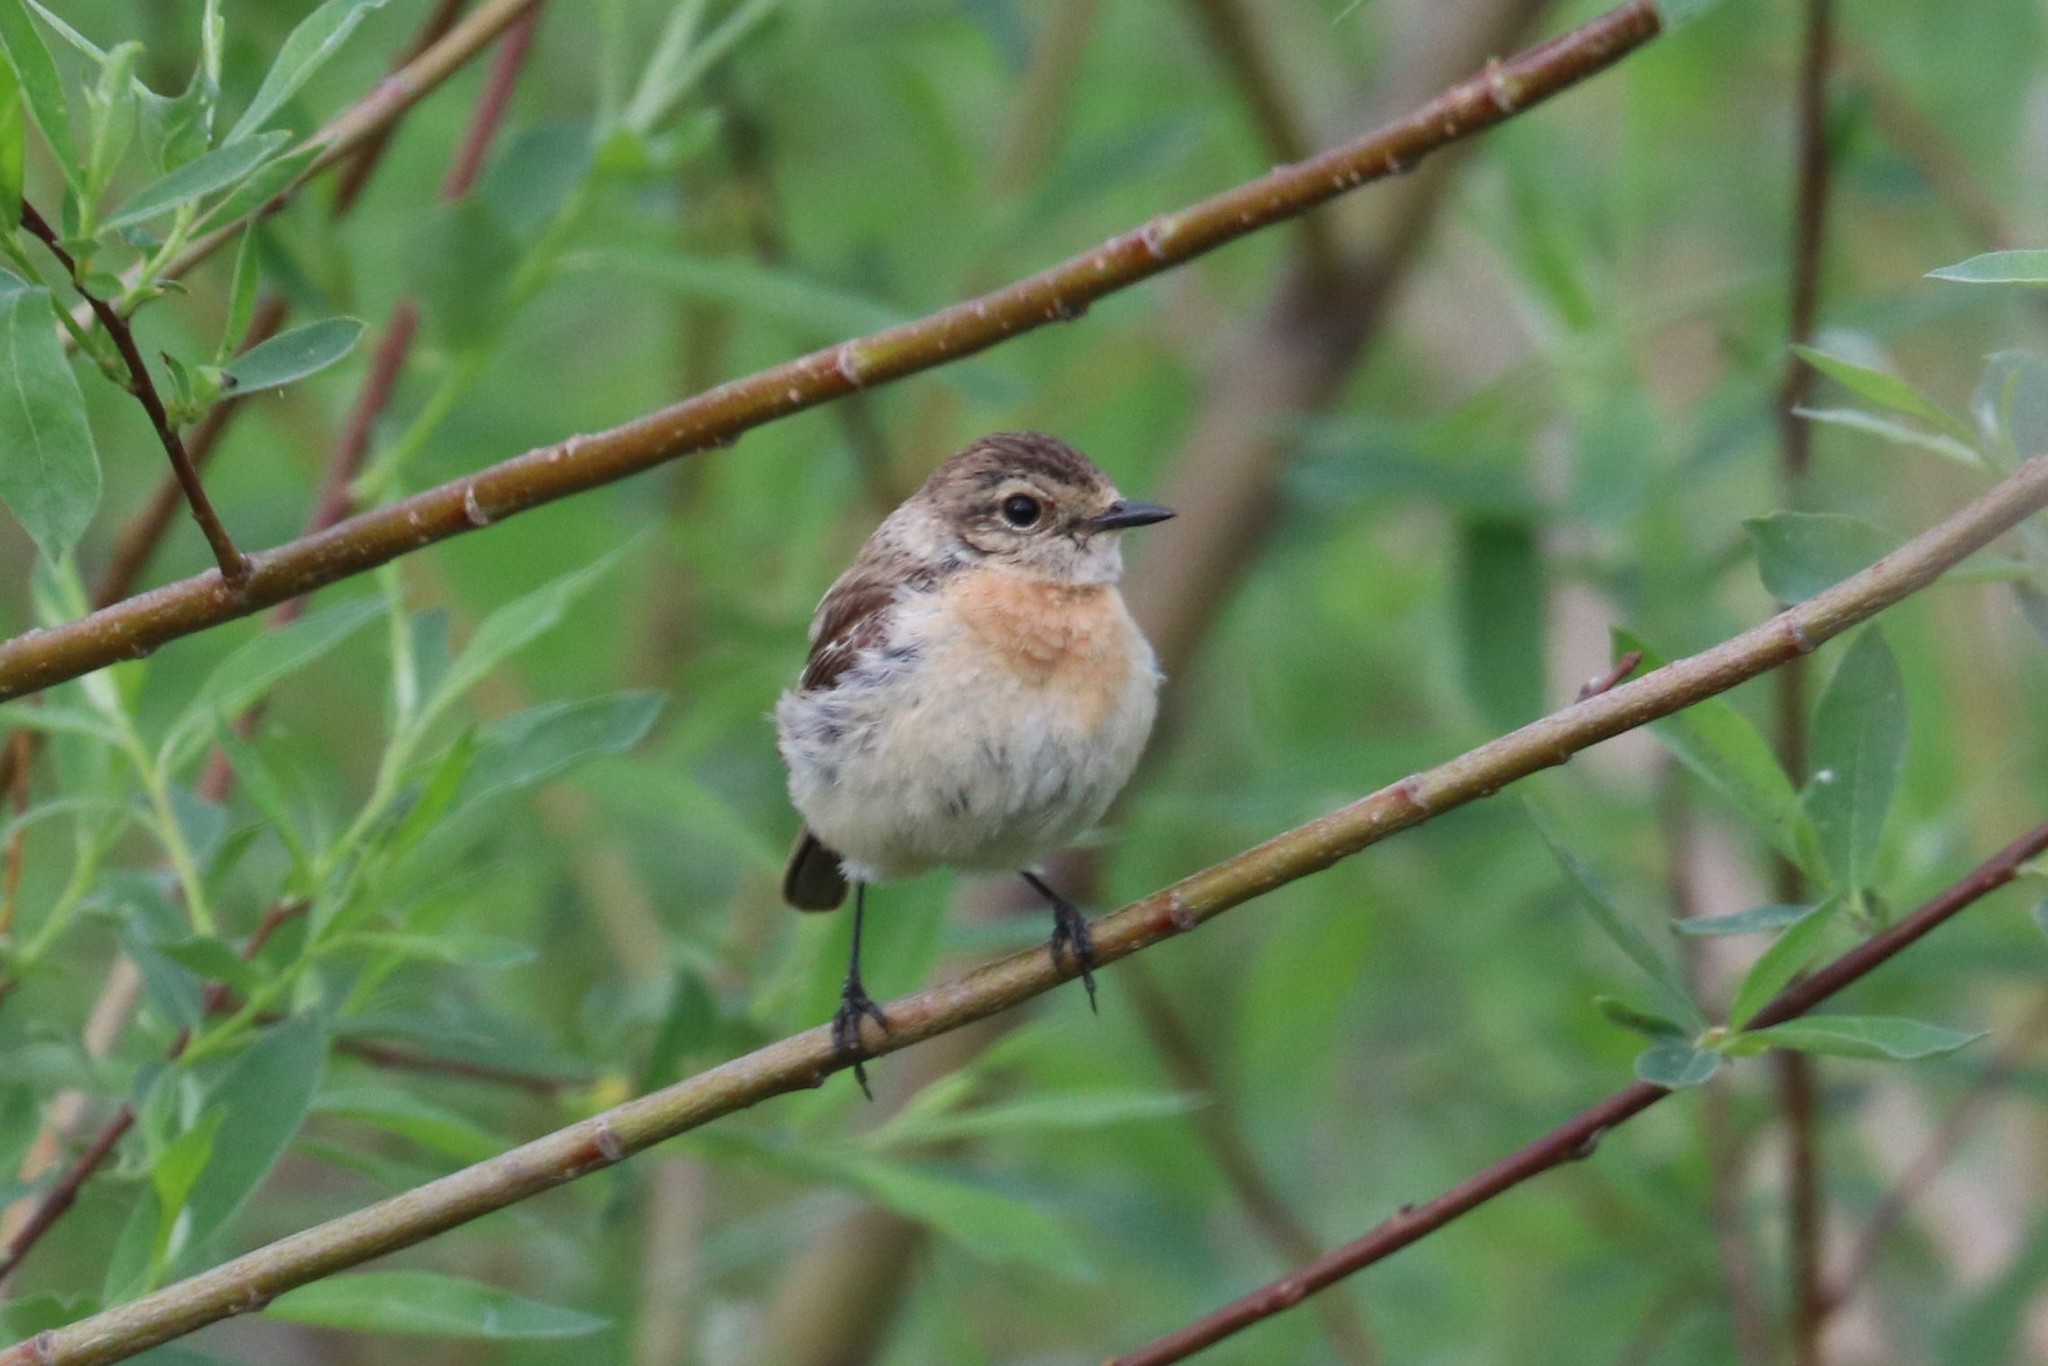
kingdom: Animalia
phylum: Chordata
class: Aves
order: Passeriformes
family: Muscicapidae
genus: Saxicola
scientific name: Saxicola maurus
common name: Siberian stonechat
